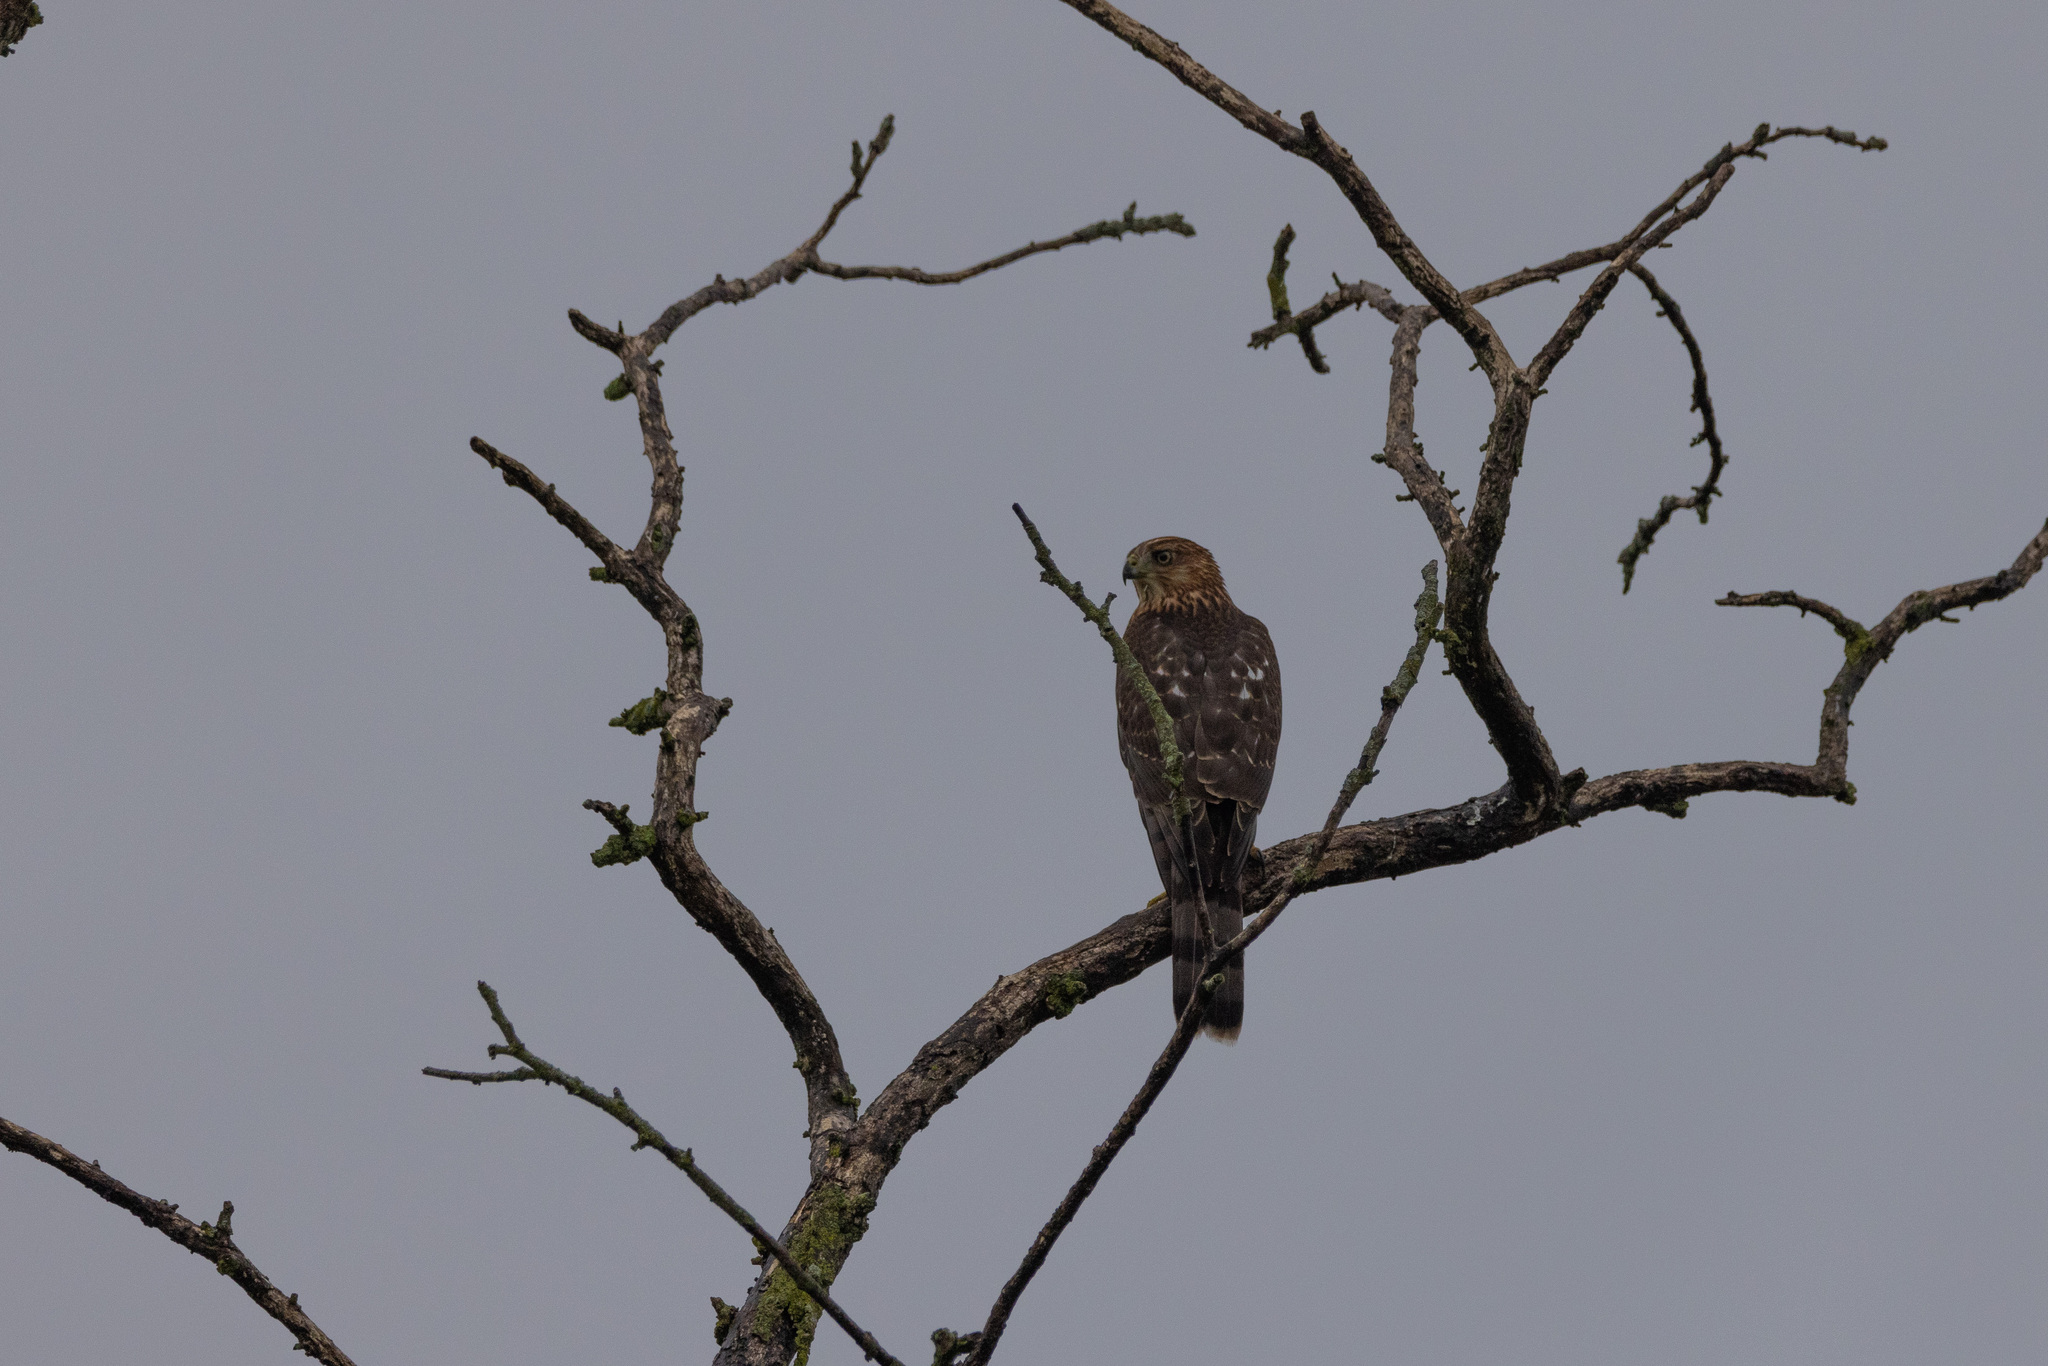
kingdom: Animalia
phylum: Chordata
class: Aves
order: Accipitriformes
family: Accipitridae
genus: Accipiter
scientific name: Accipiter cooperii
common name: Cooper's hawk
